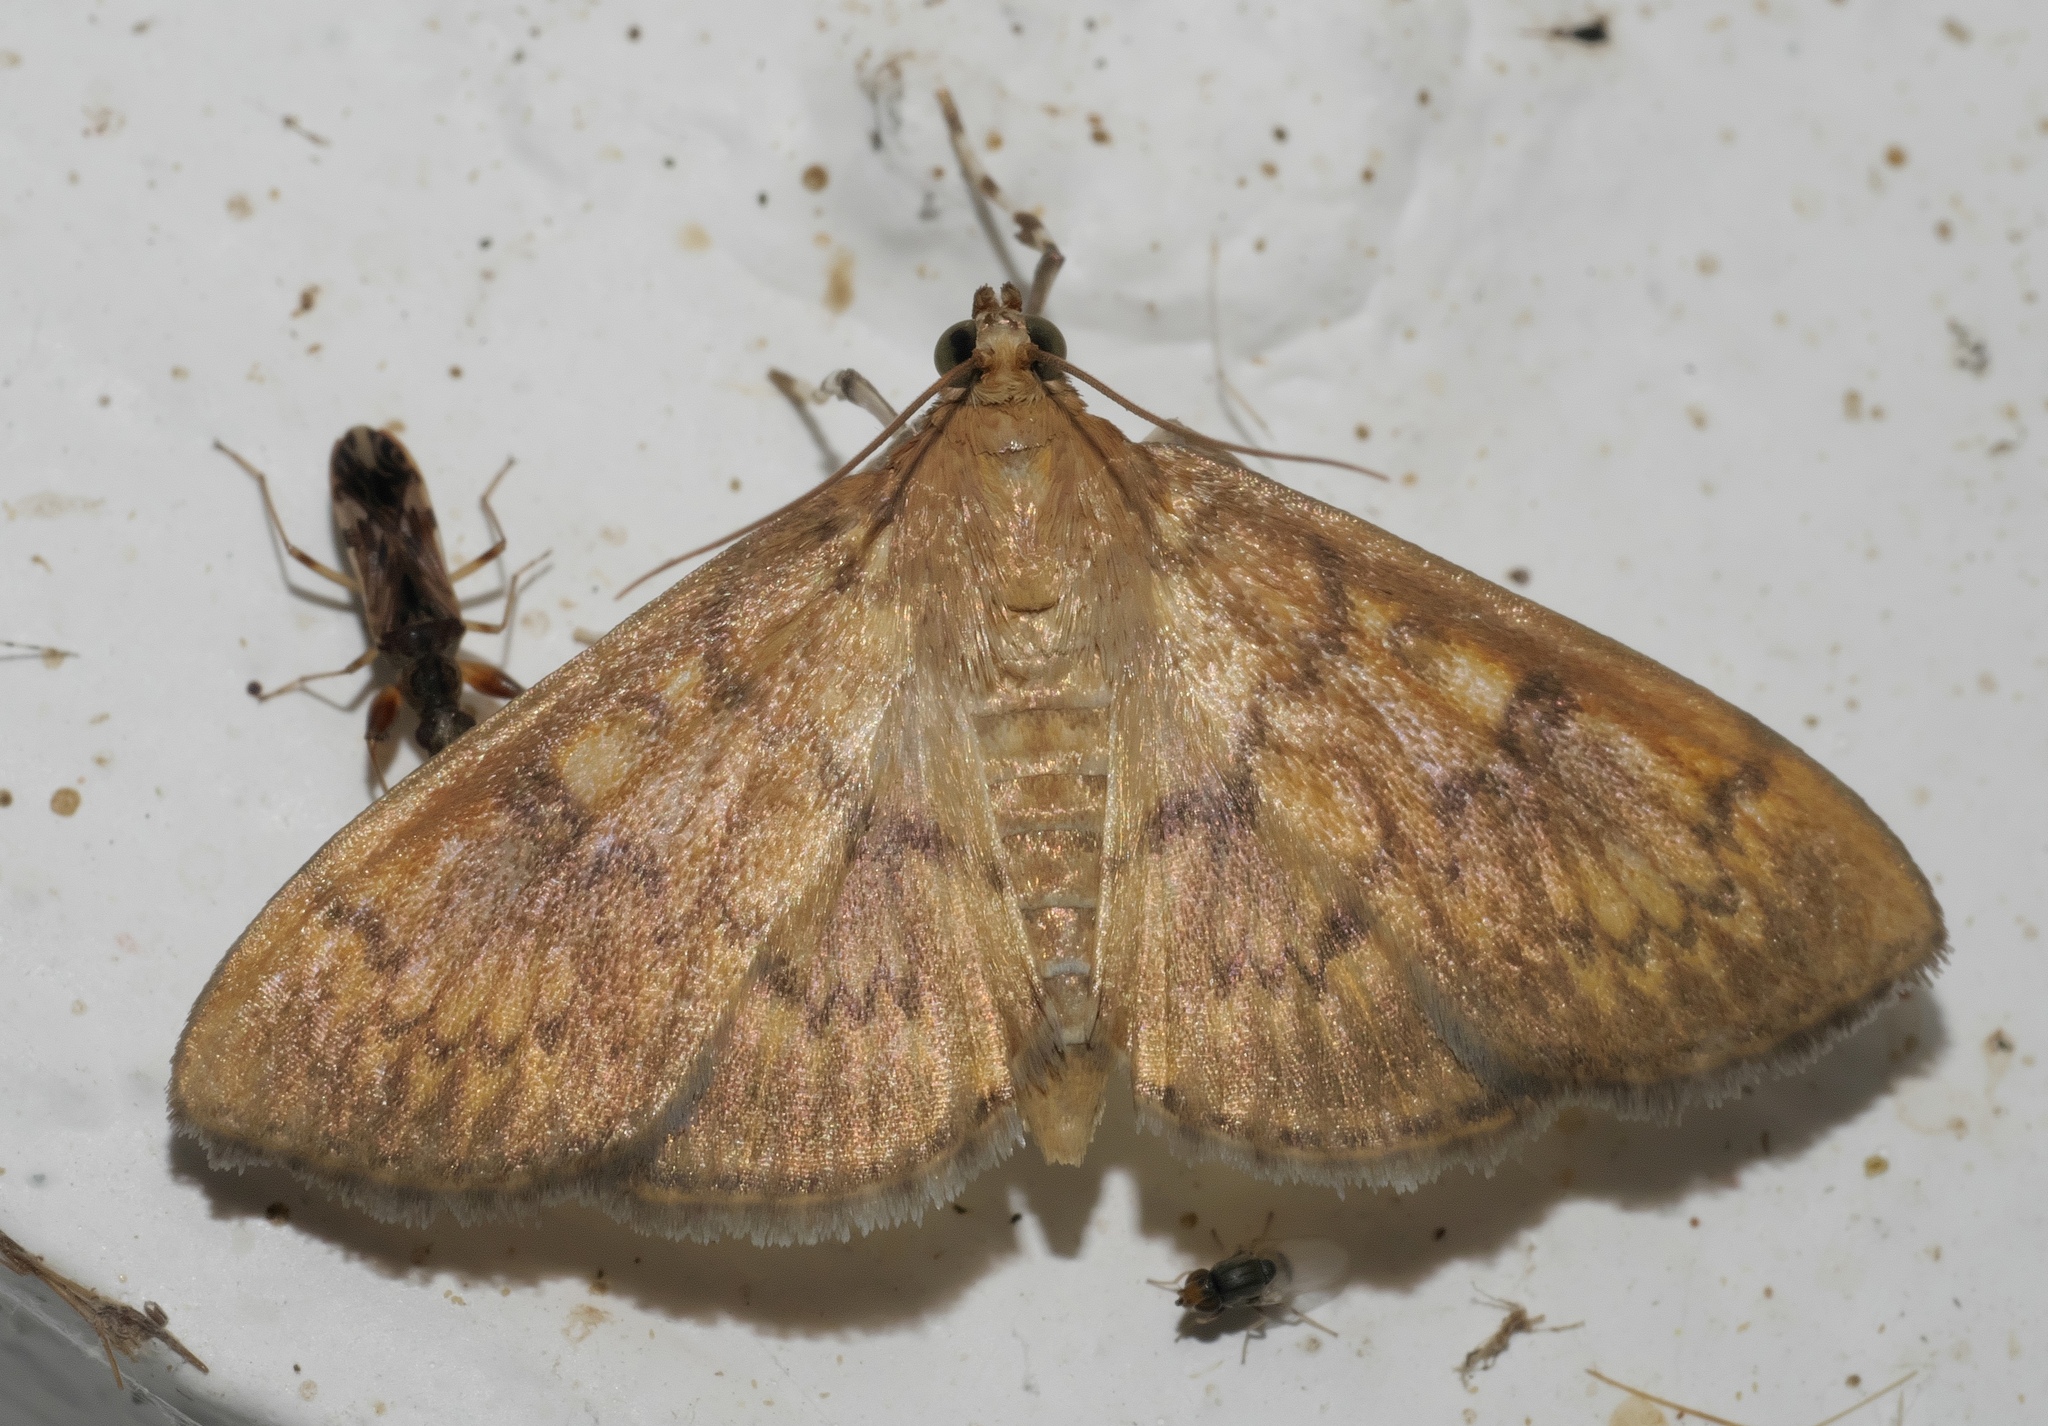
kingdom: Animalia
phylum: Arthropoda
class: Insecta
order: Lepidoptera
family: Crambidae
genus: Syllepte
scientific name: Syllepte obscuralis
